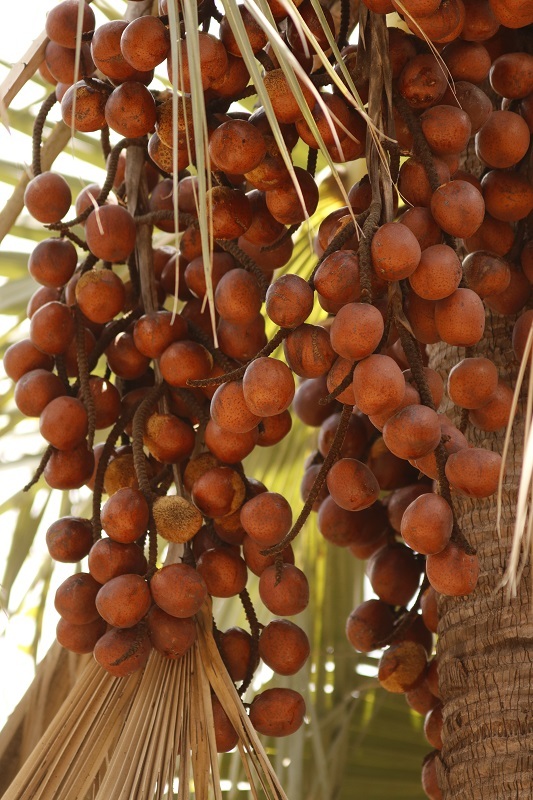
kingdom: Plantae
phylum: Tracheophyta
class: Liliopsida
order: Arecales
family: Arecaceae
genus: Hyphaene
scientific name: Hyphaene petersiana
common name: African ivory nut palm
